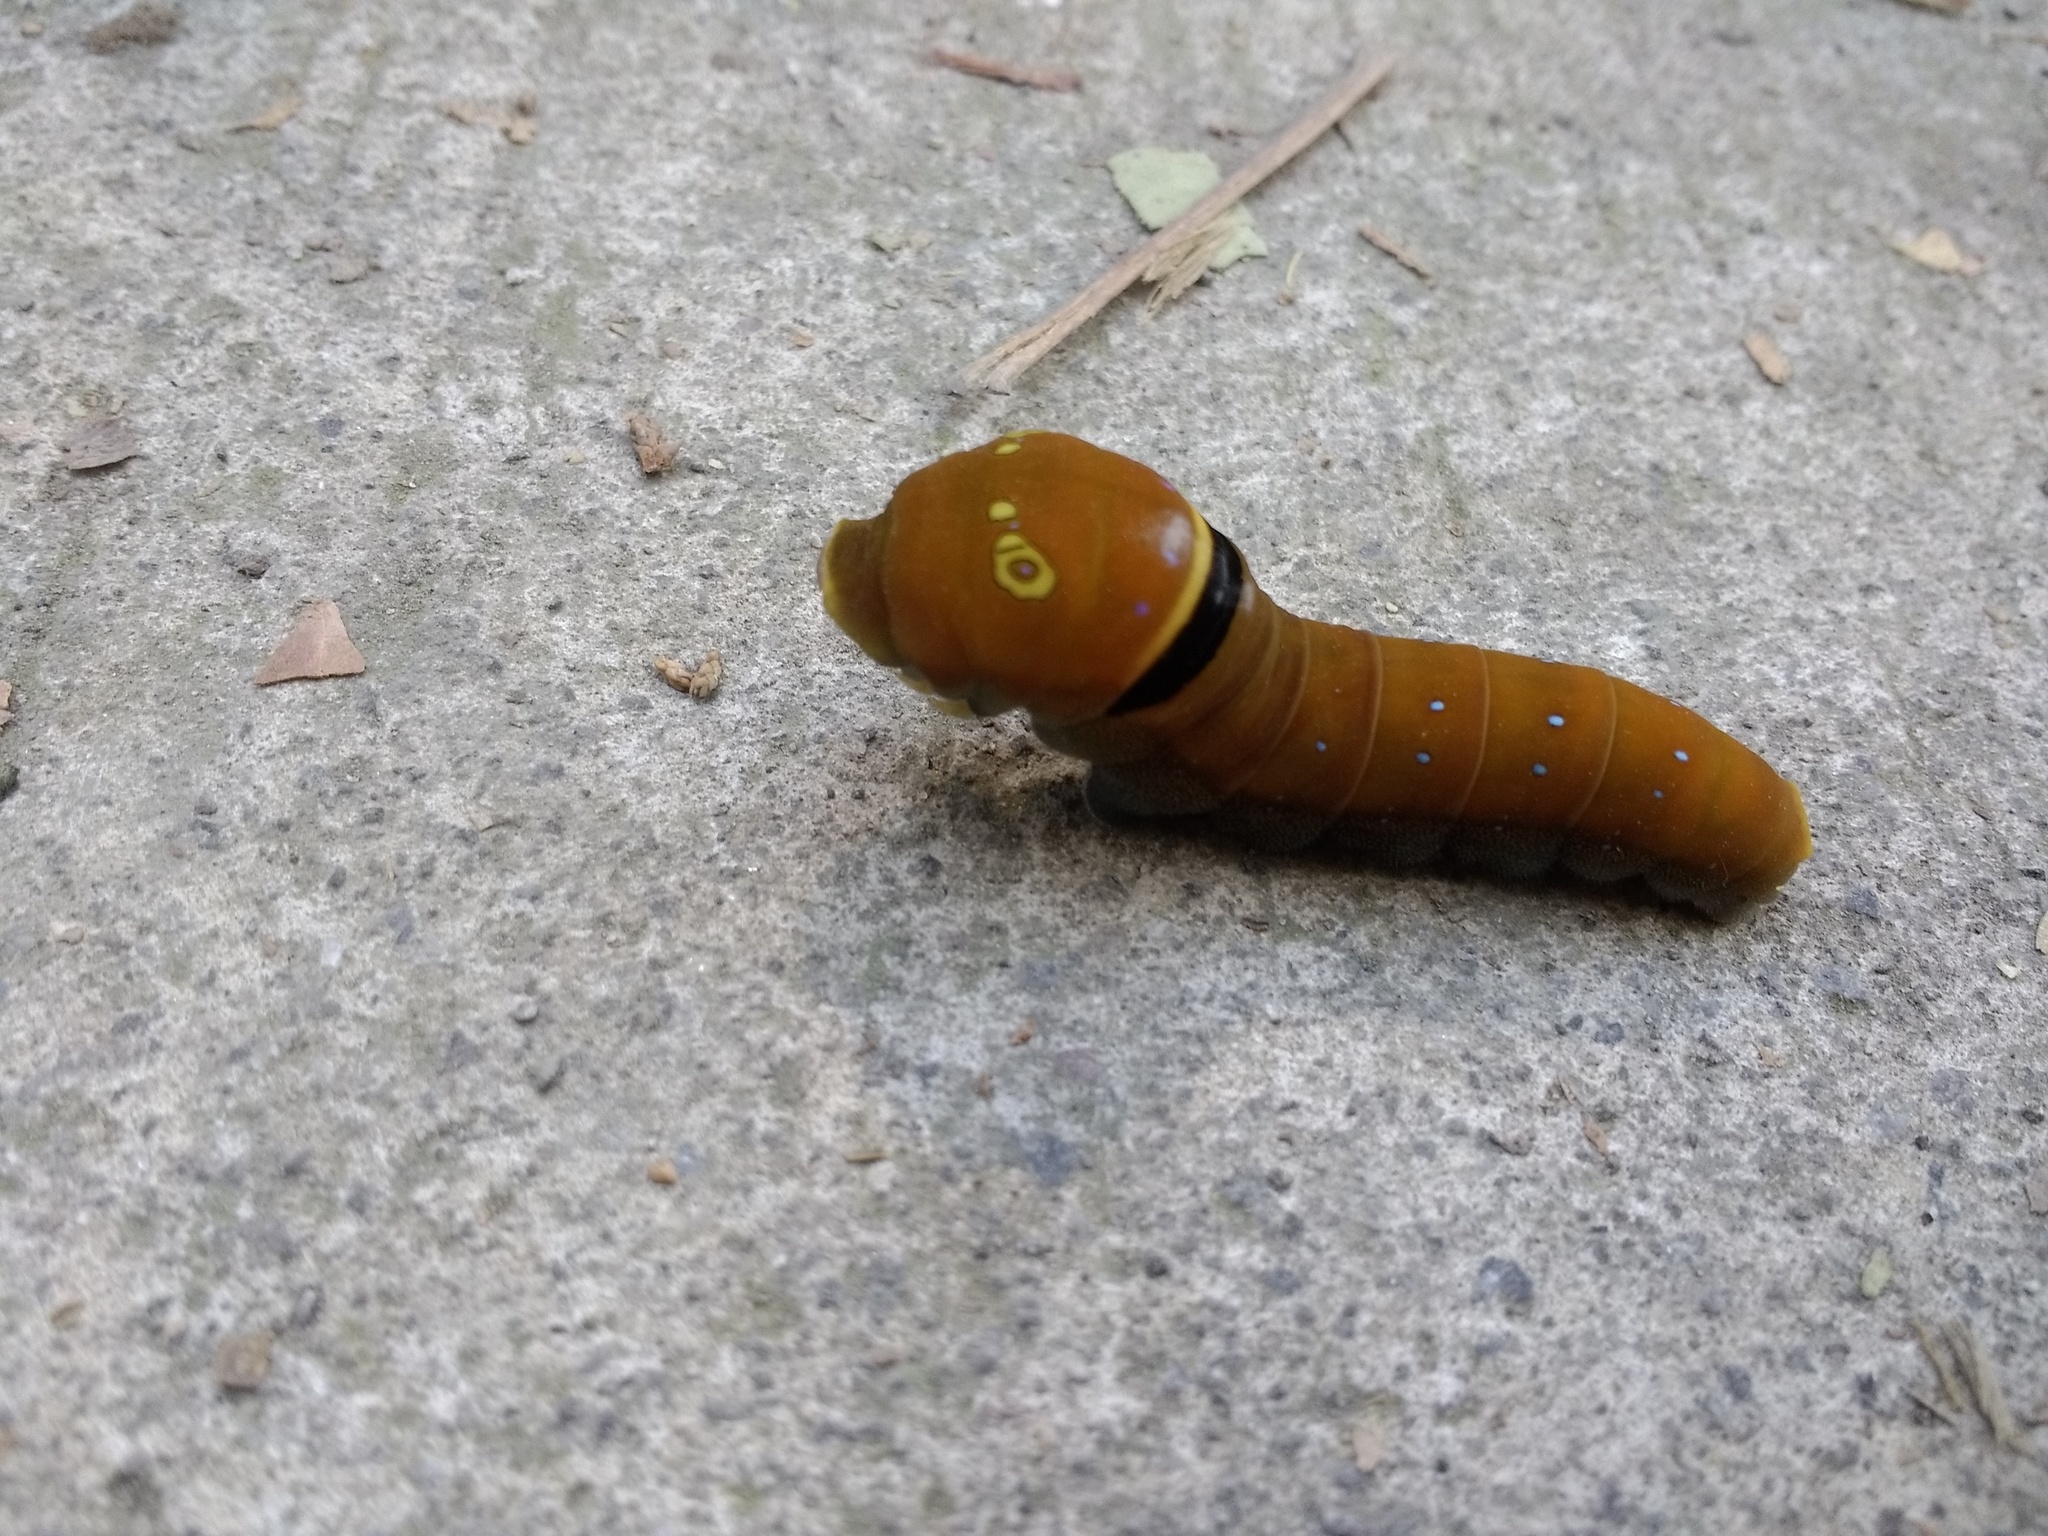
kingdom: Animalia
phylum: Arthropoda
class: Insecta
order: Lepidoptera
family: Papilionidae
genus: Papilio
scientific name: Papilio multicaudata
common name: Two-tailed tiger swallowtail
